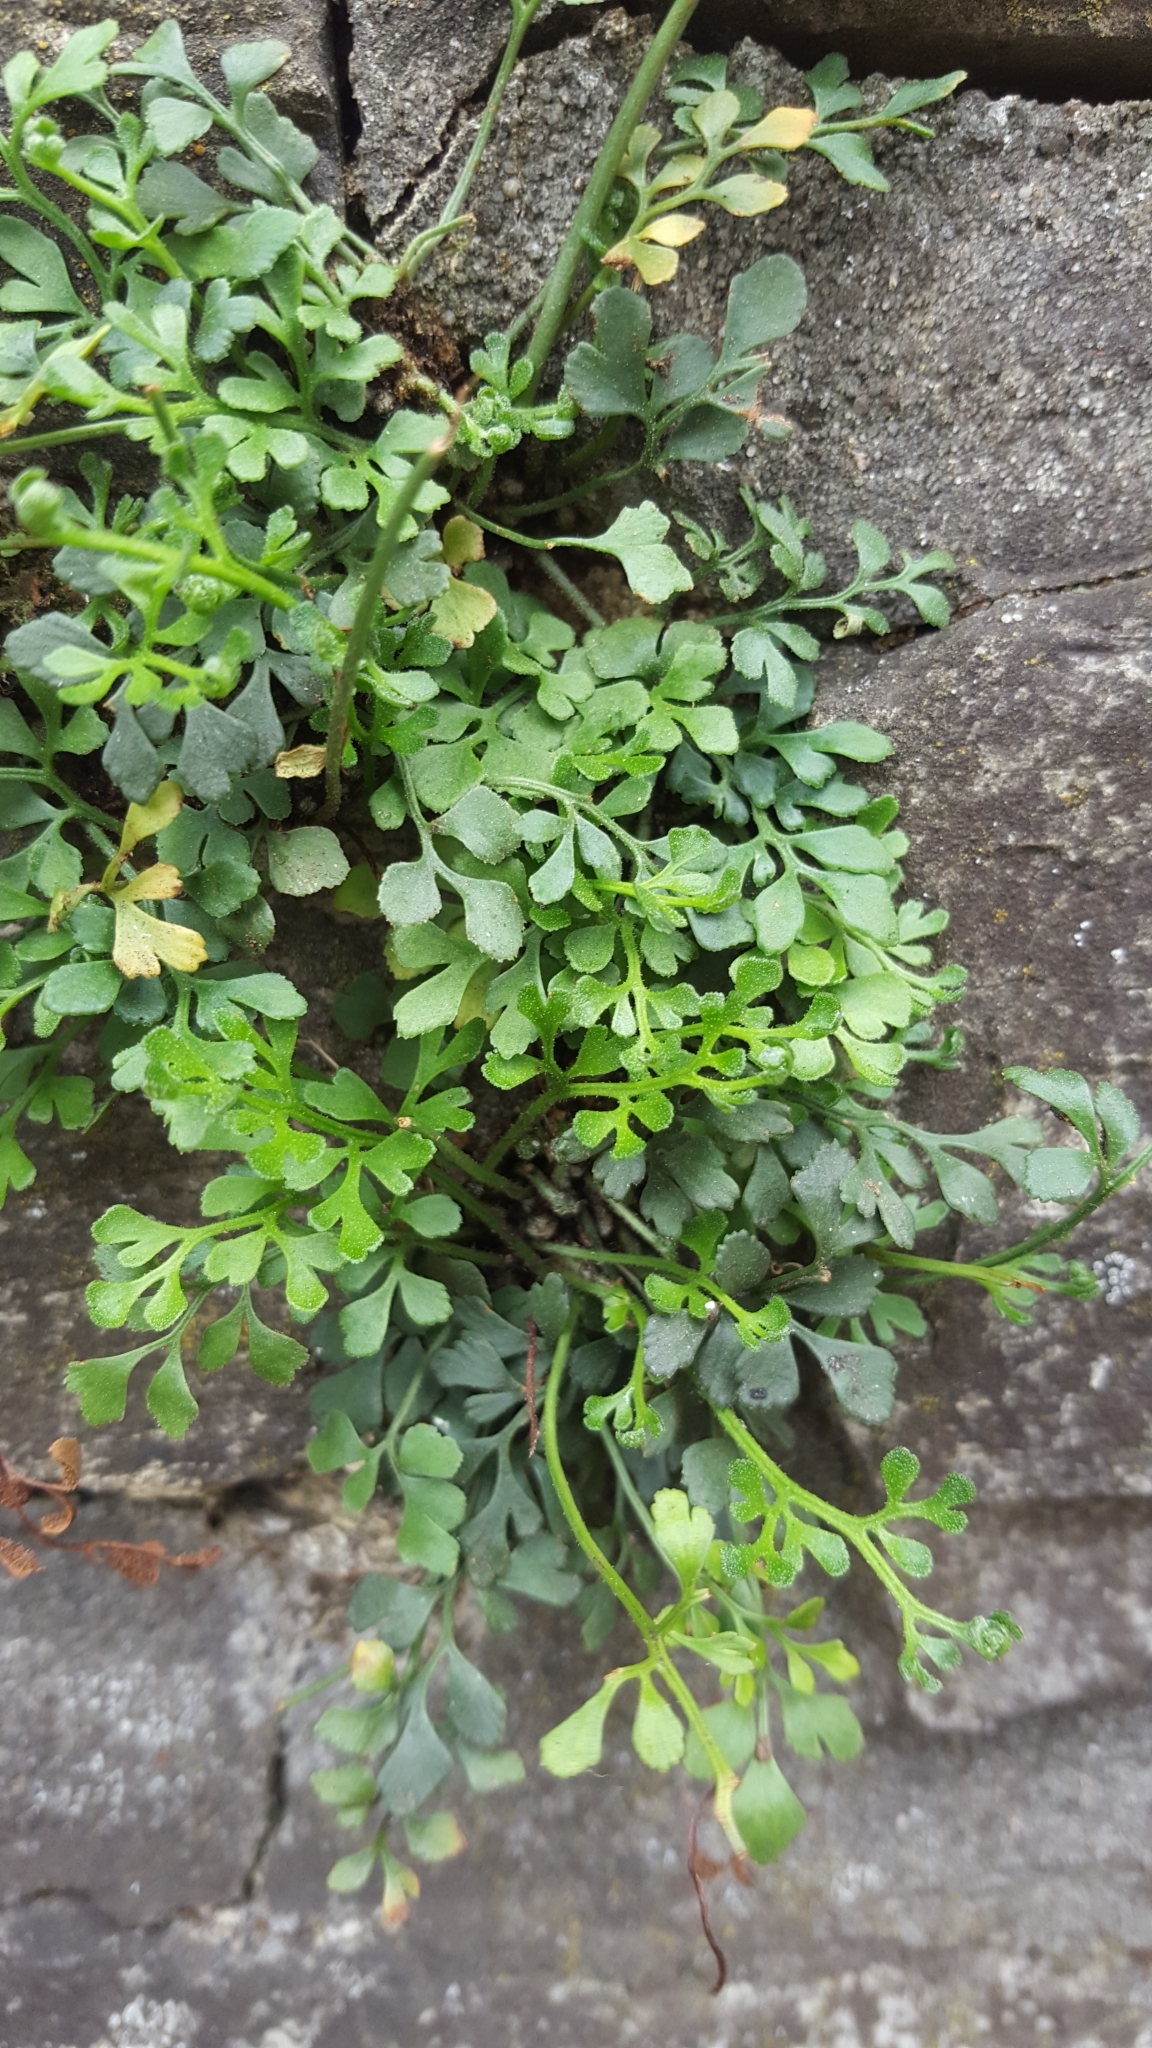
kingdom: Plantae
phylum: Tracheophyta
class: Polypodiopsida
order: Polypodiales
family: Aspleniaceae
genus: Asplenium
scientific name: Asplenium ruta-muraria
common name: Wall-rue
